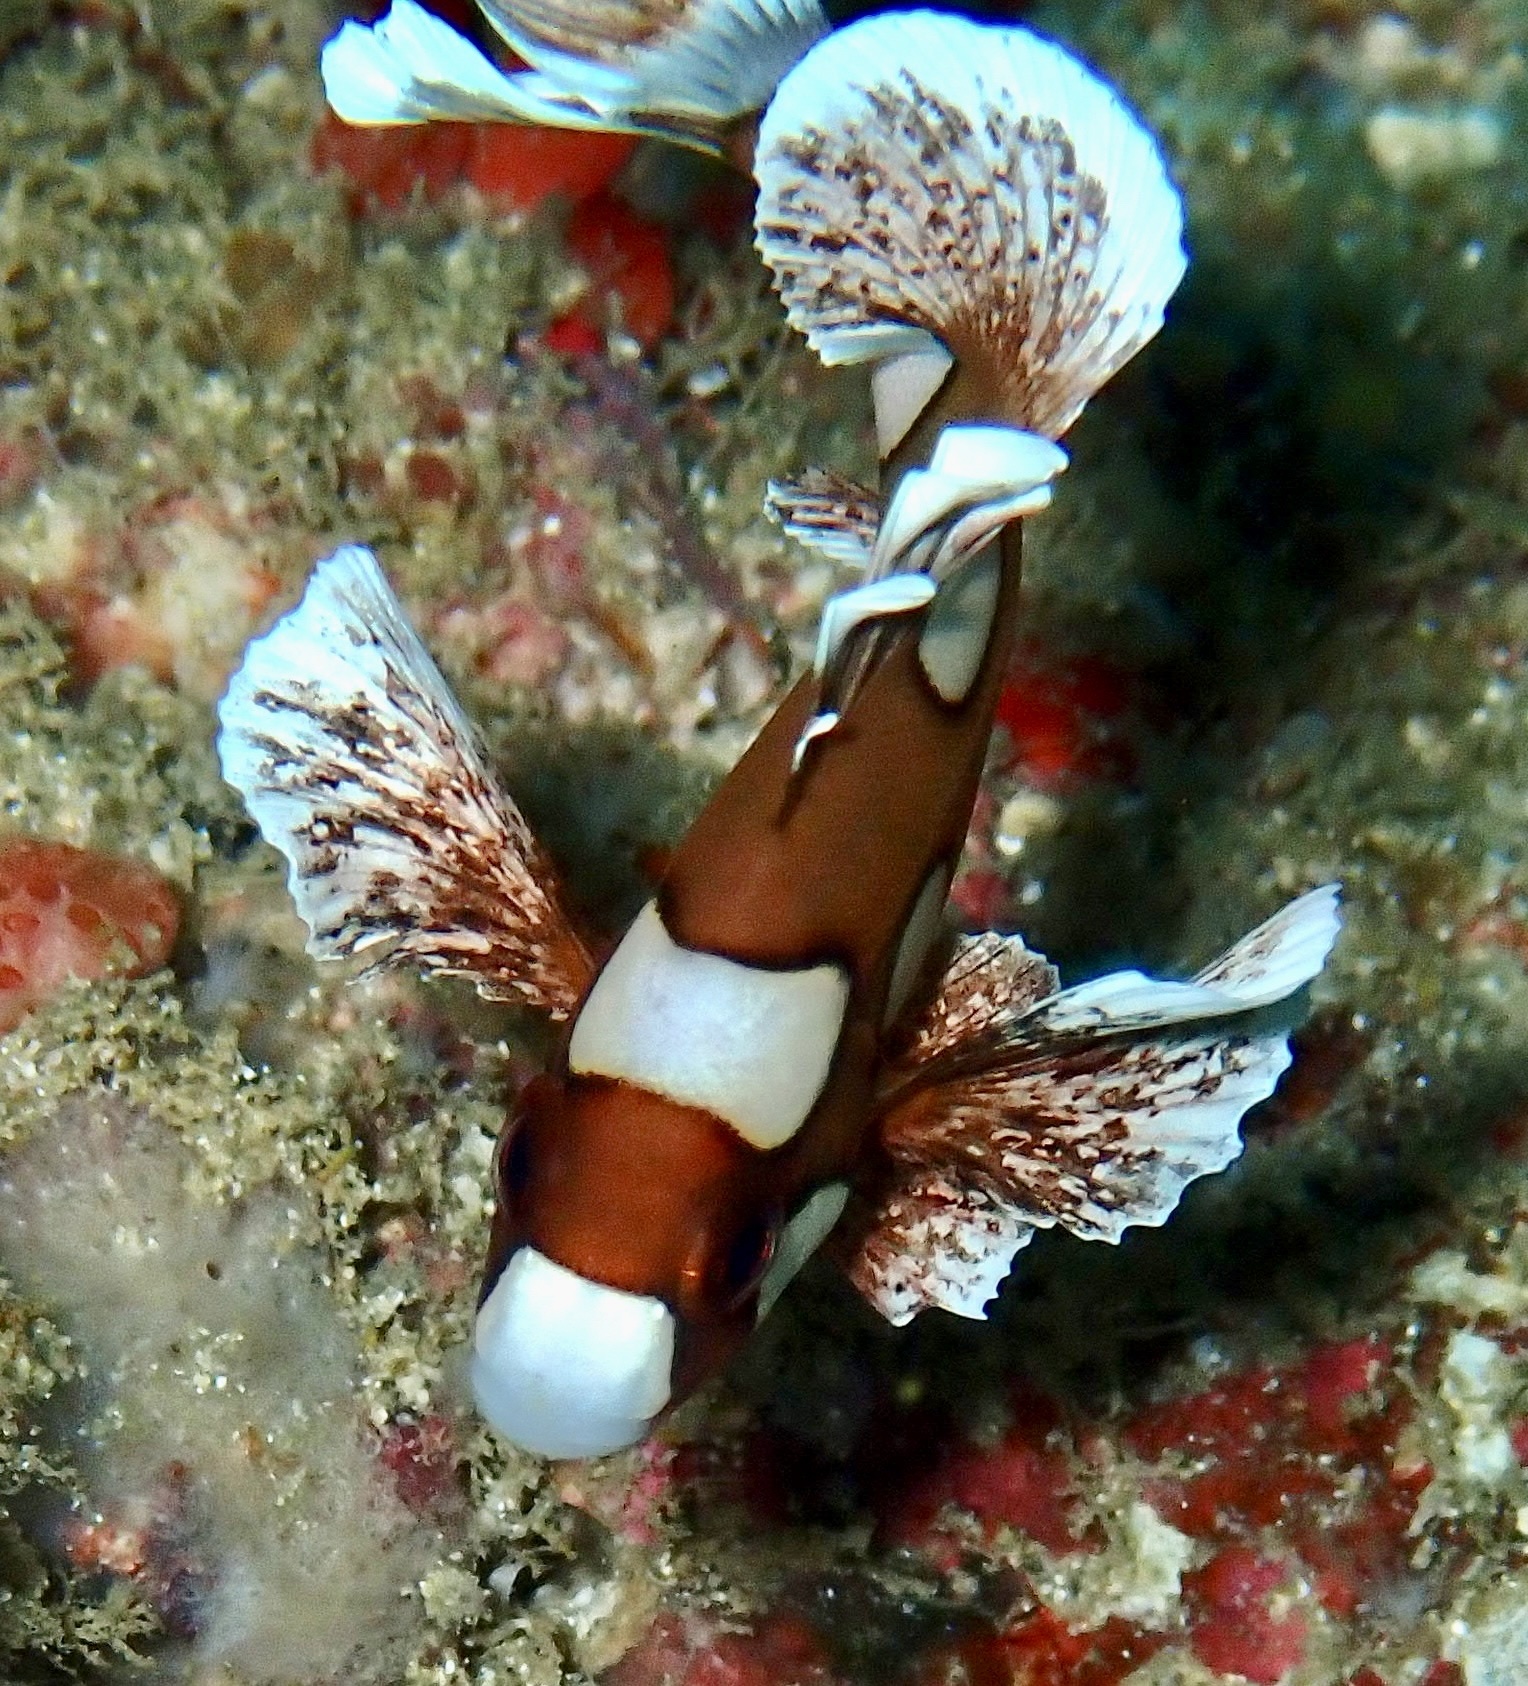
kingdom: Animalia
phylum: Chordata
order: Perciformes
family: Haemulidae
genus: Plectorhinchus
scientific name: Plectorhinchus chaetodonoides
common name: Harlequin sweetlips
